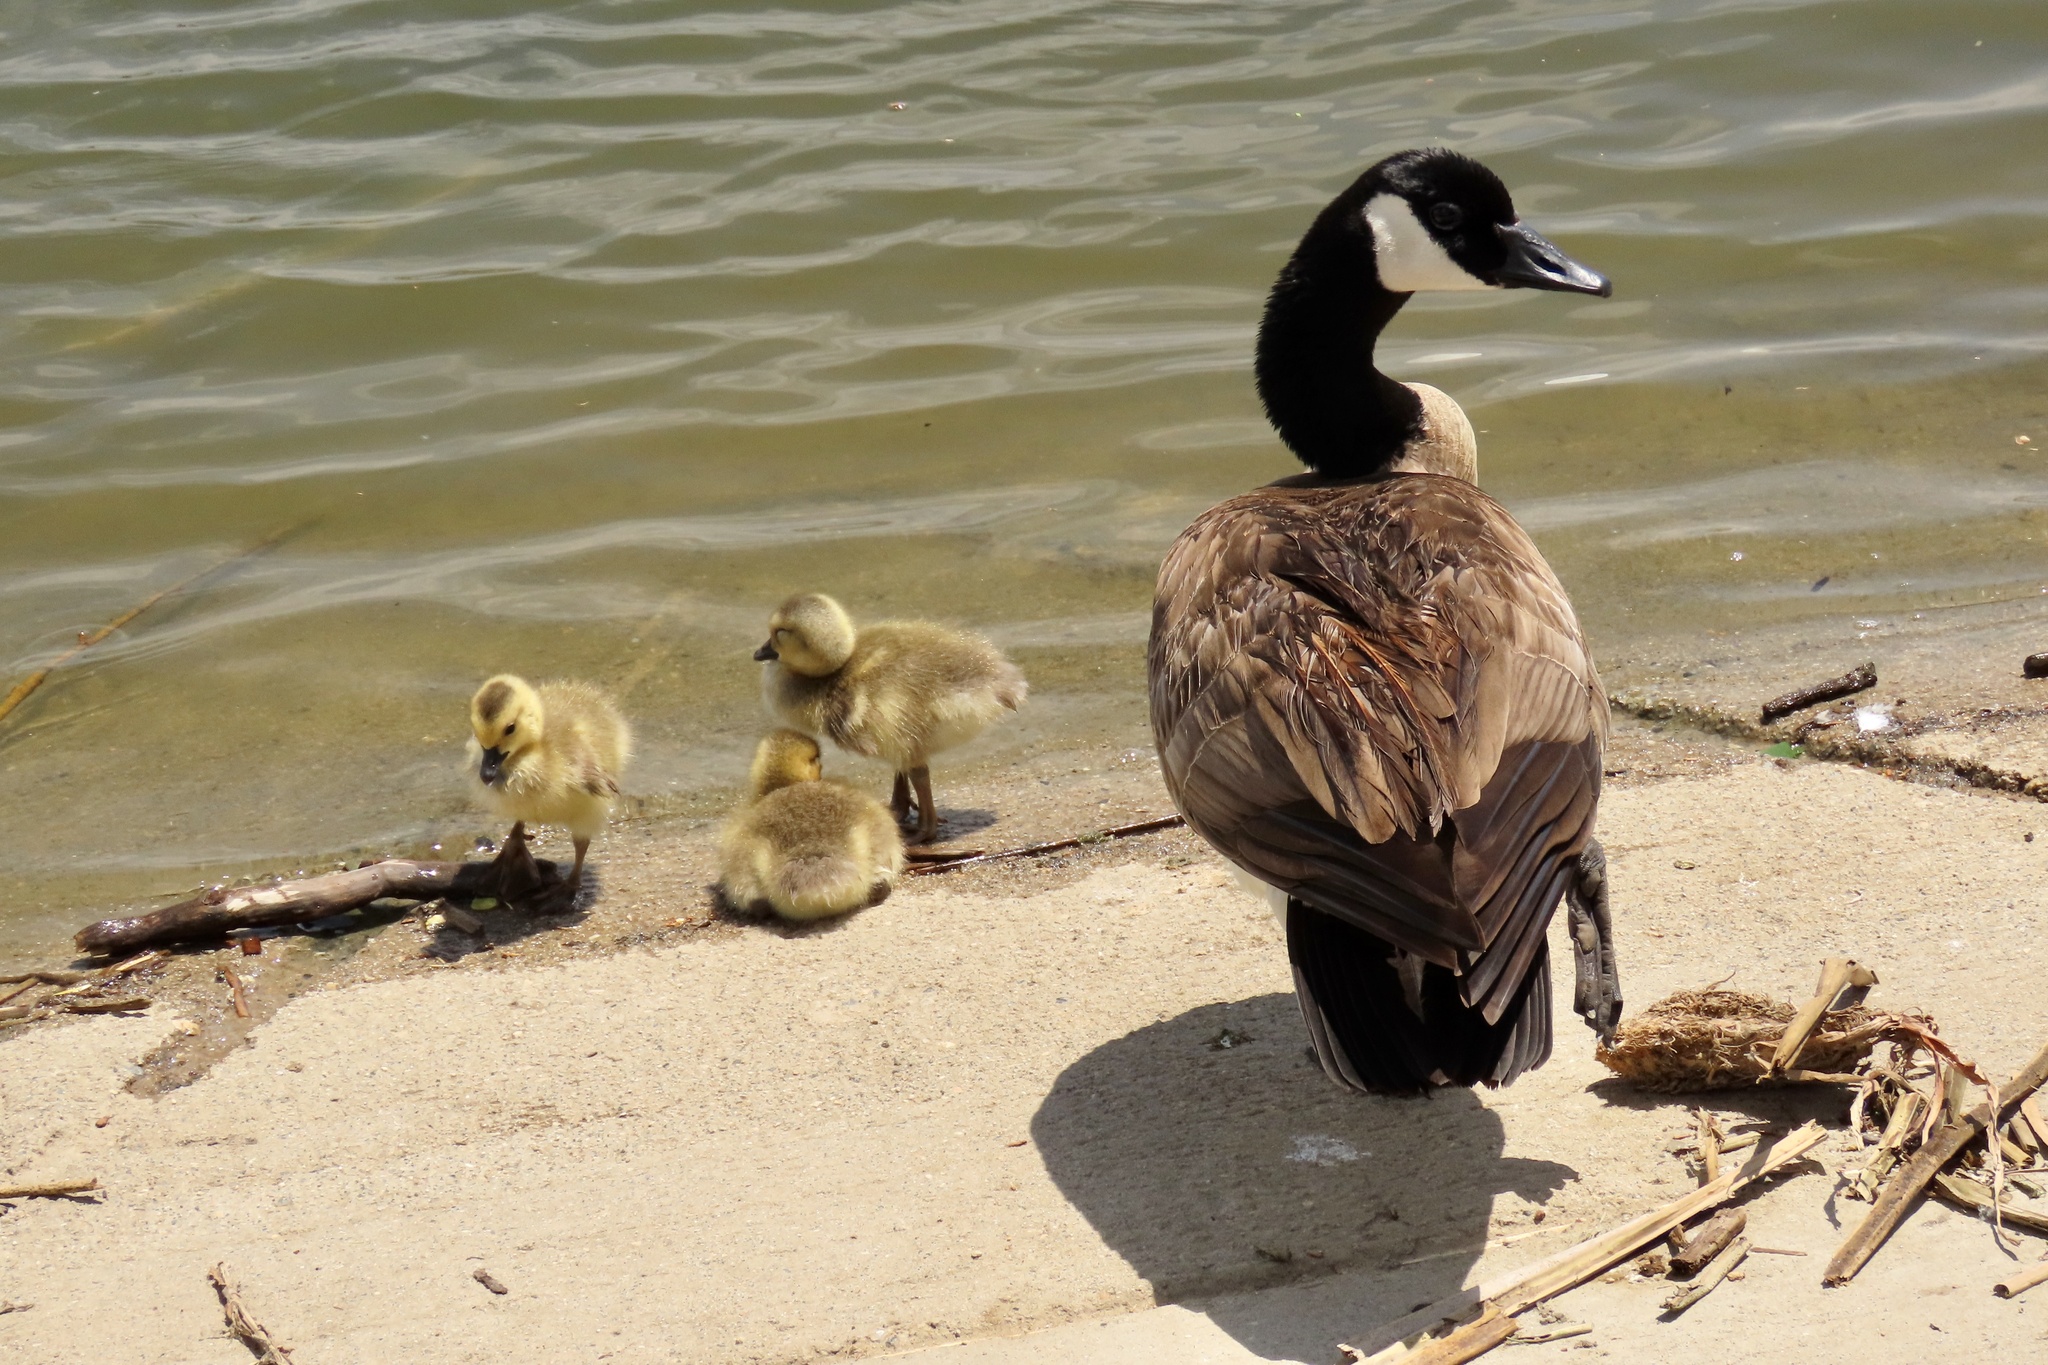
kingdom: Animalia
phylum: Chordata
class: Aves
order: Anseriformes
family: Anatidae
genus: Branta
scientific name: Branta canadensis
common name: Canada goose
